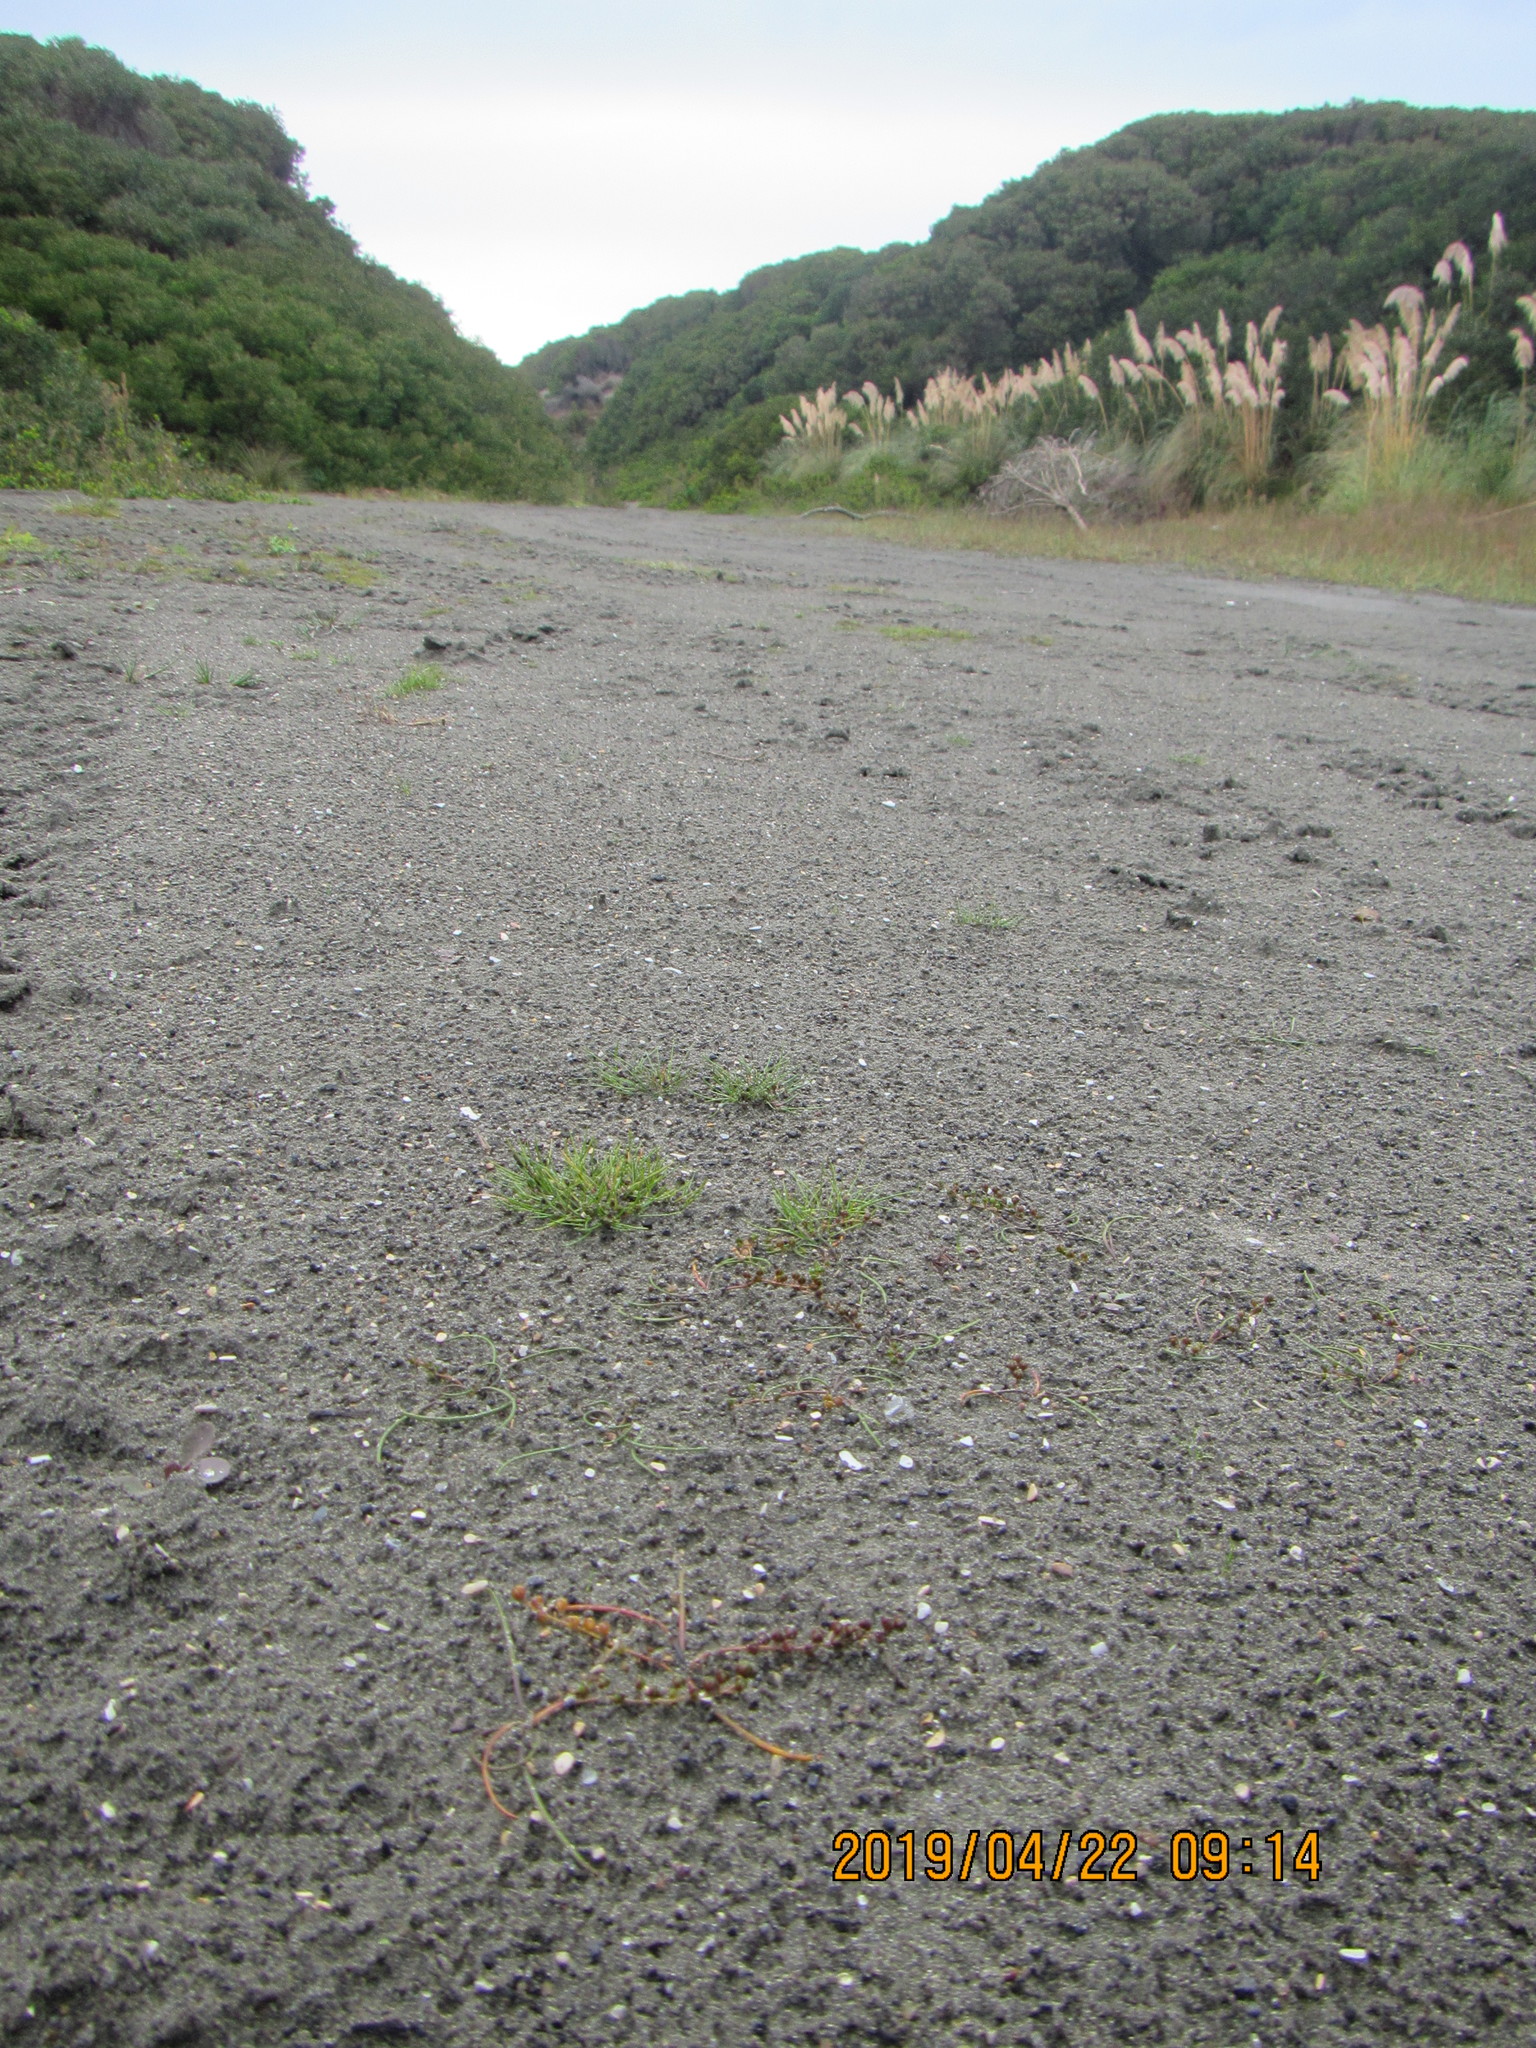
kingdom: Plantae
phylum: Tracheophyta
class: Liliopsida
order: Alismatales
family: Juncaginaceae
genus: Triglochin
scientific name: Triglochin striata
